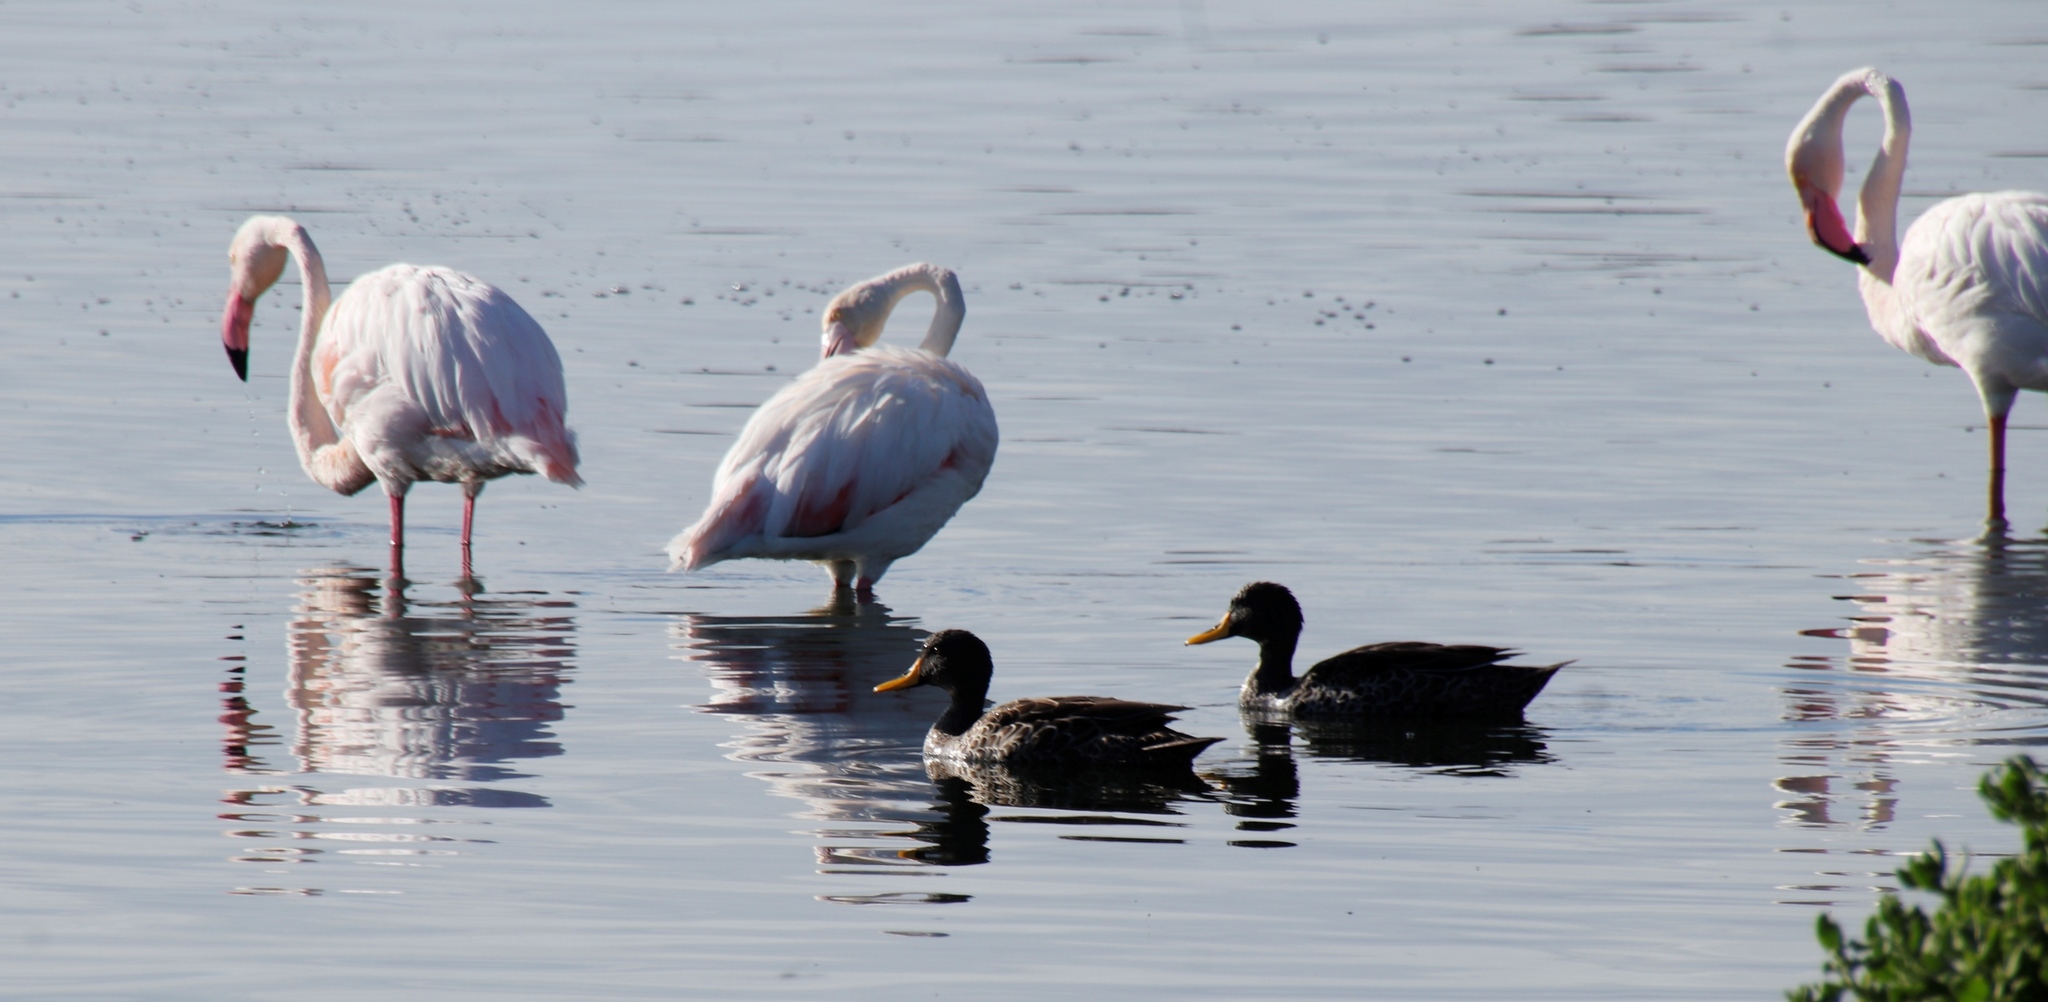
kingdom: Animalia
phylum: Chordata
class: Aves
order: Anseriformes
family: Anatidae
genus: Anas
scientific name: Anas undulata
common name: Yellow-billed duck
